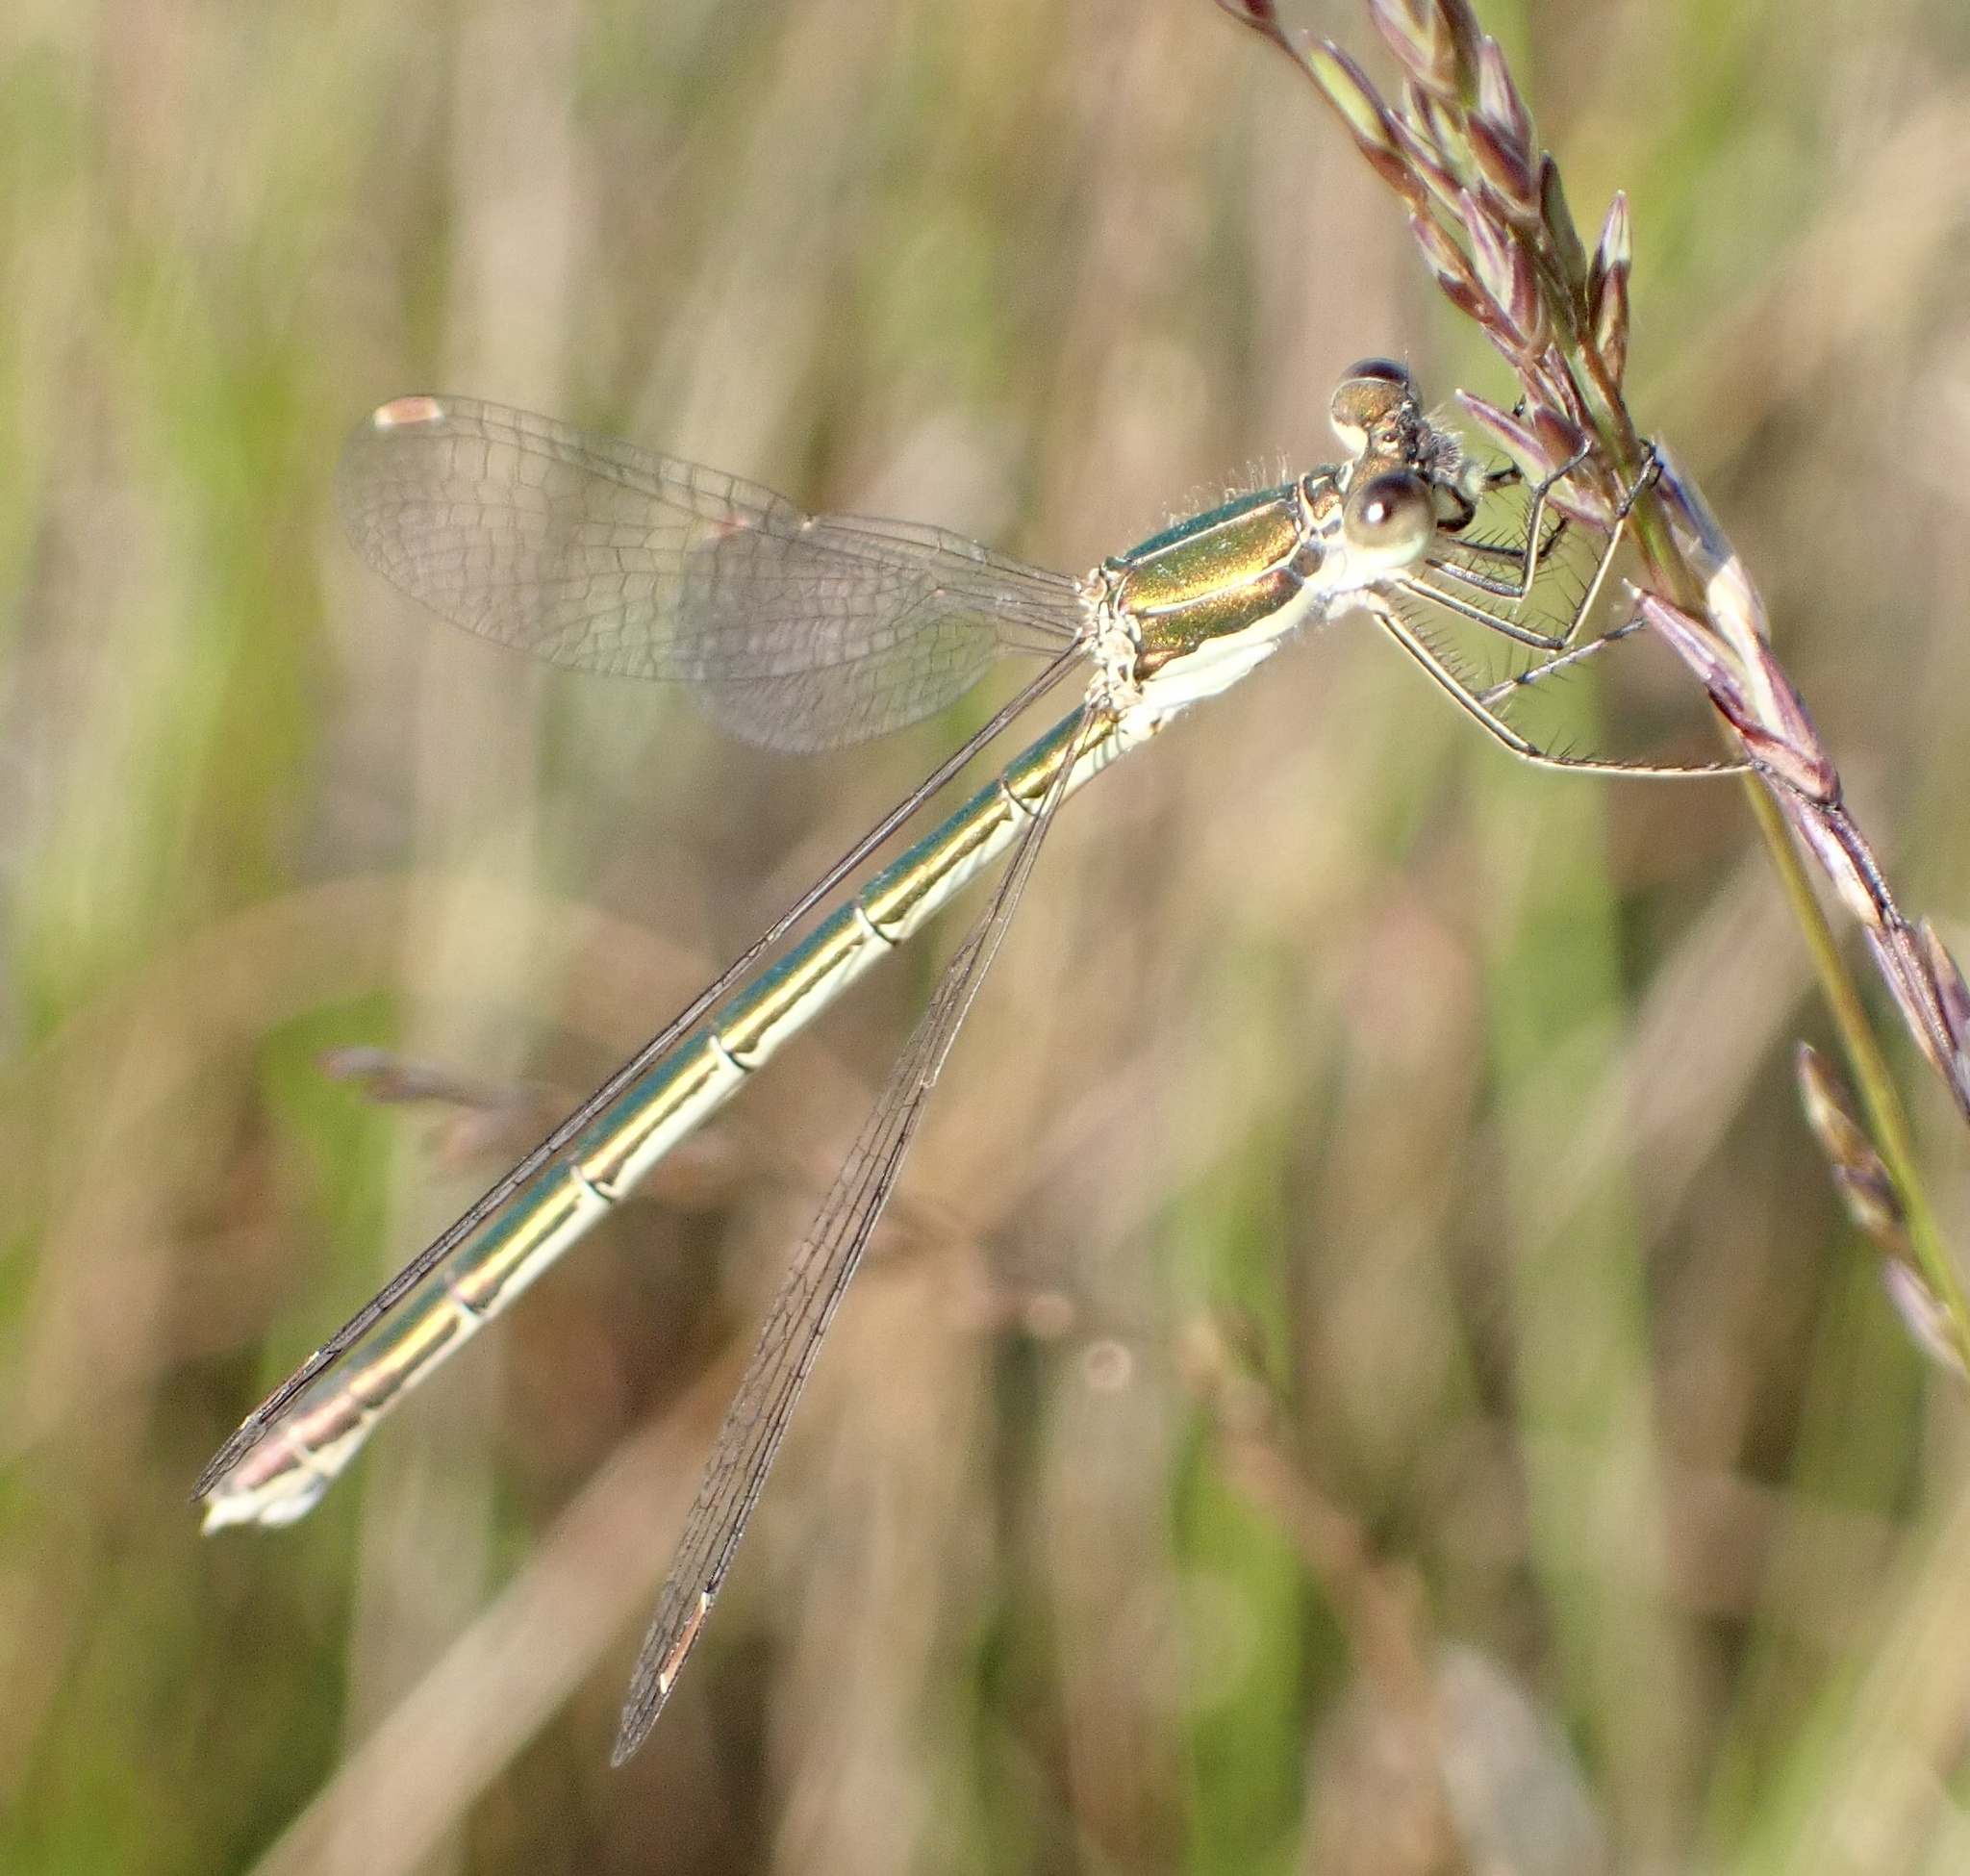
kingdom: Animalia
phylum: Arthropoda
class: Insecta
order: Odonata
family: Lestidae
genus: Lestes
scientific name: Lestes virens
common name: Small emerald spreadwing
